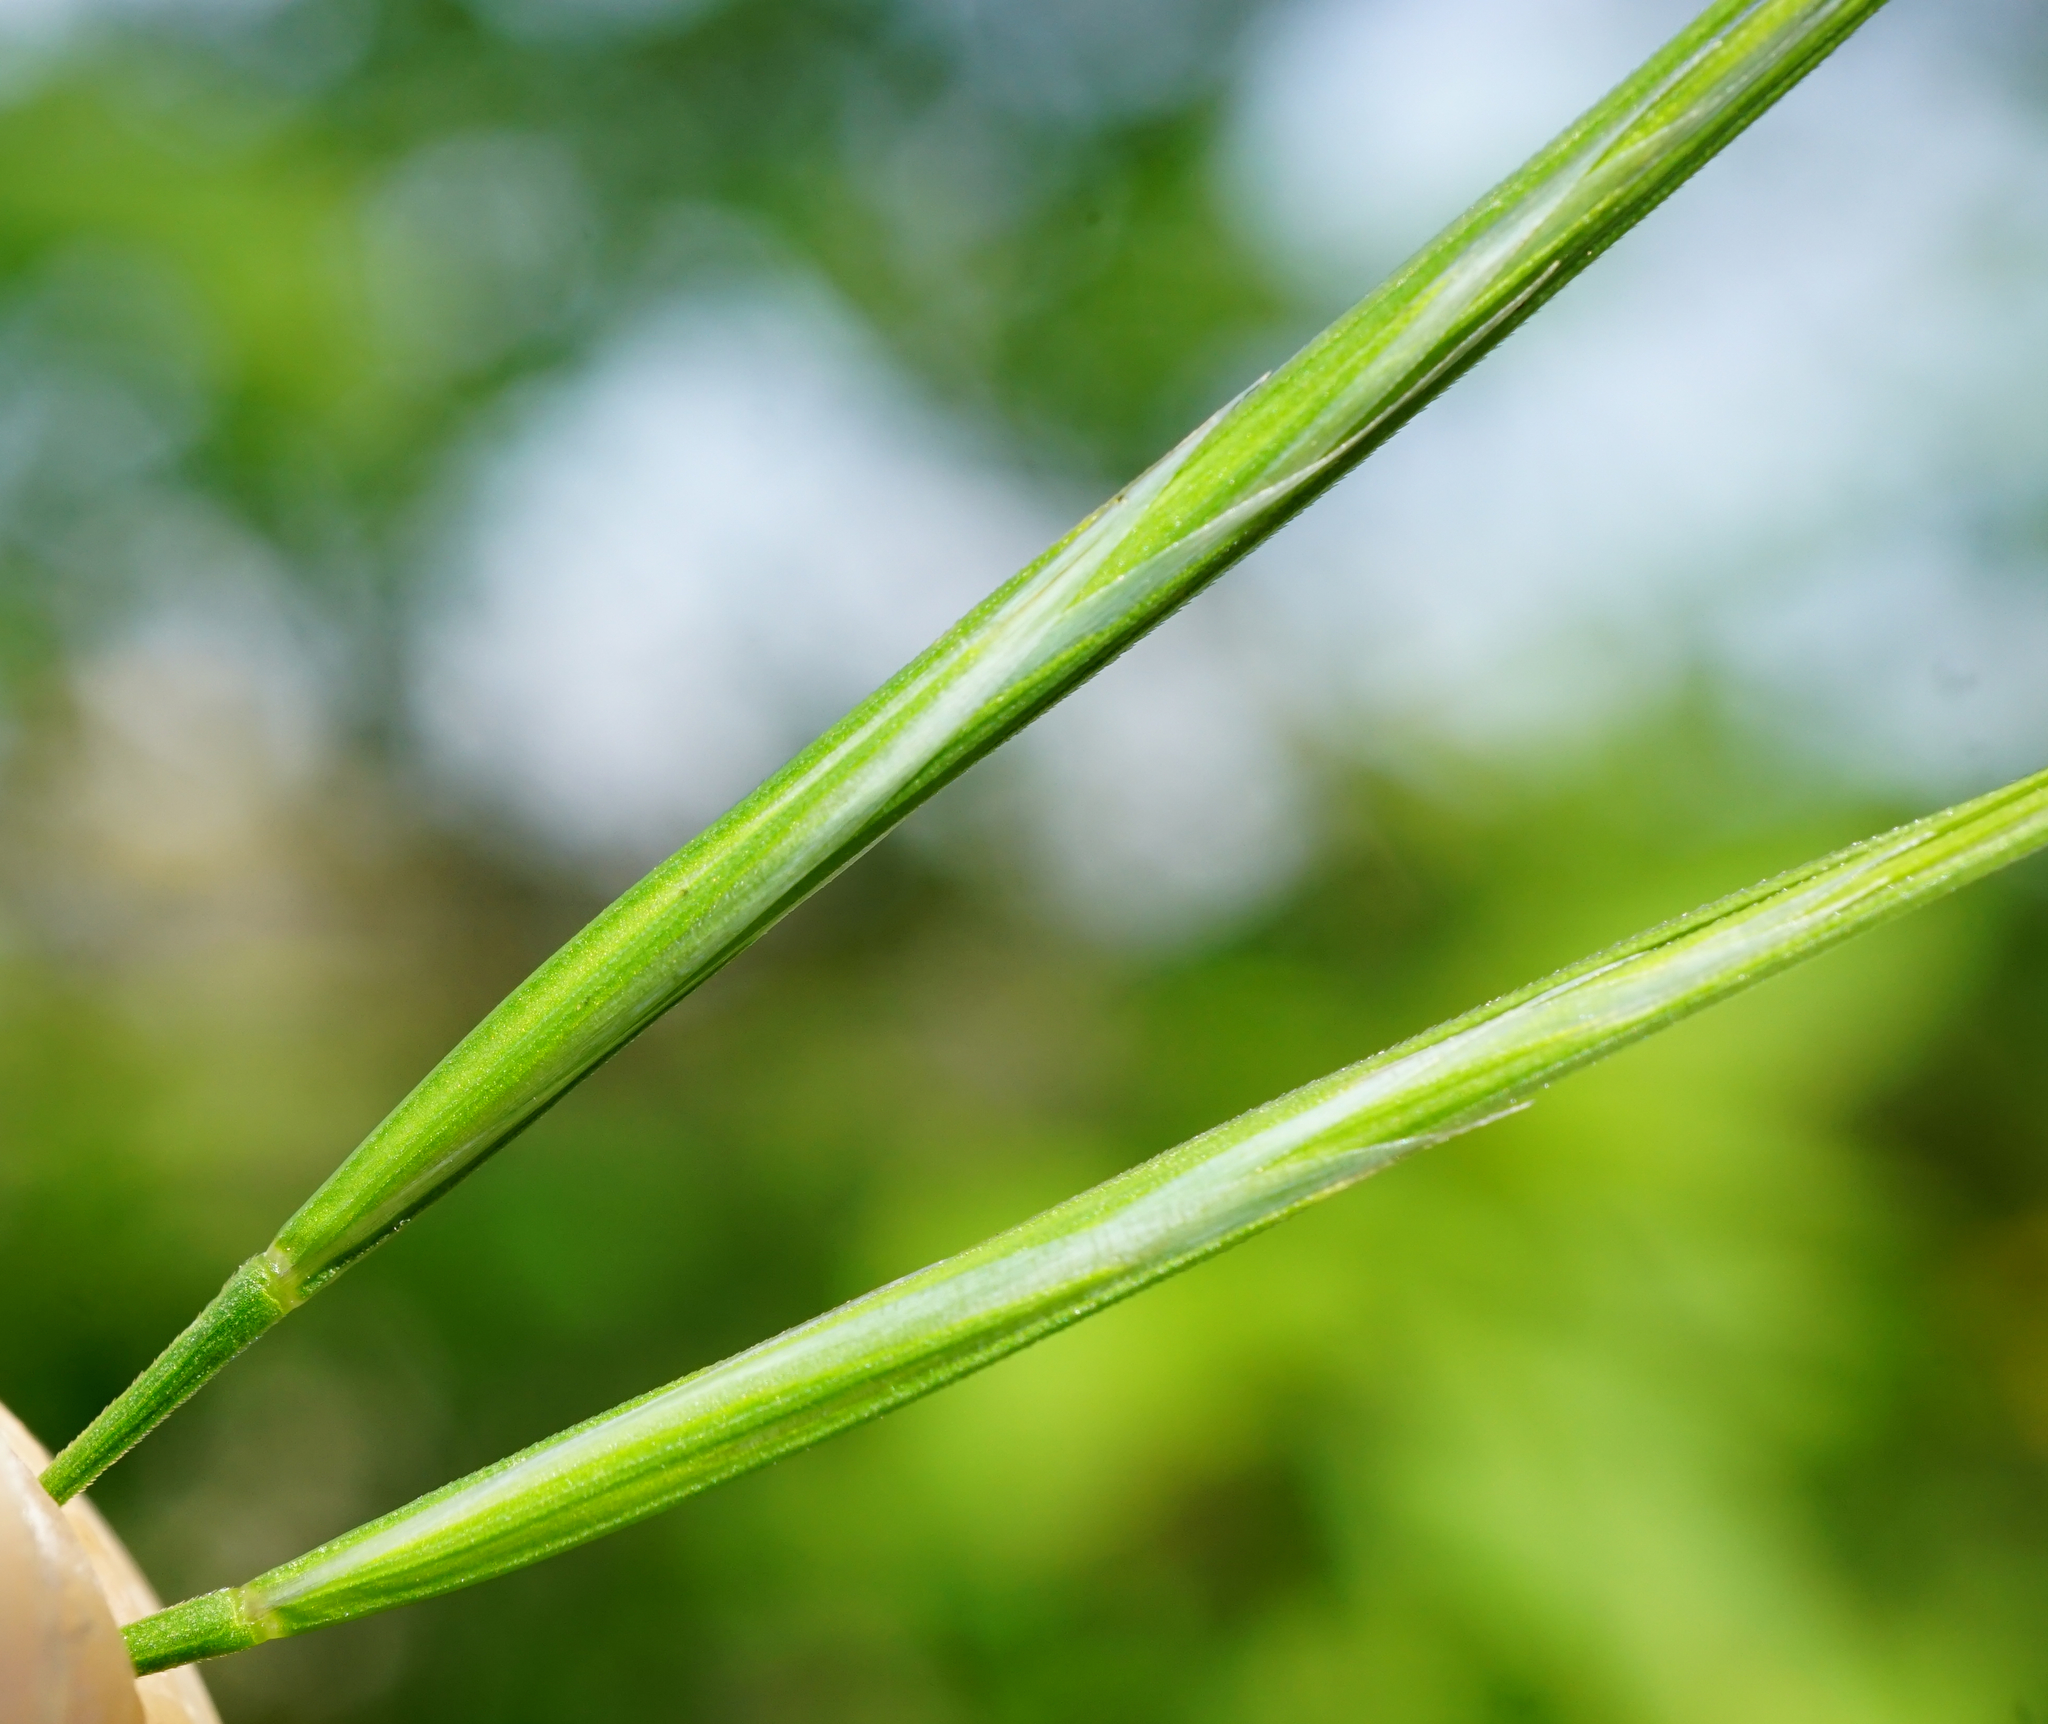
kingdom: Plantae
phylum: Tracheophyta
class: Liliopsida
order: Poales
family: Poaceae
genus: Bromus
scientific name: Bromus sterilis
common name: Poverty brome
